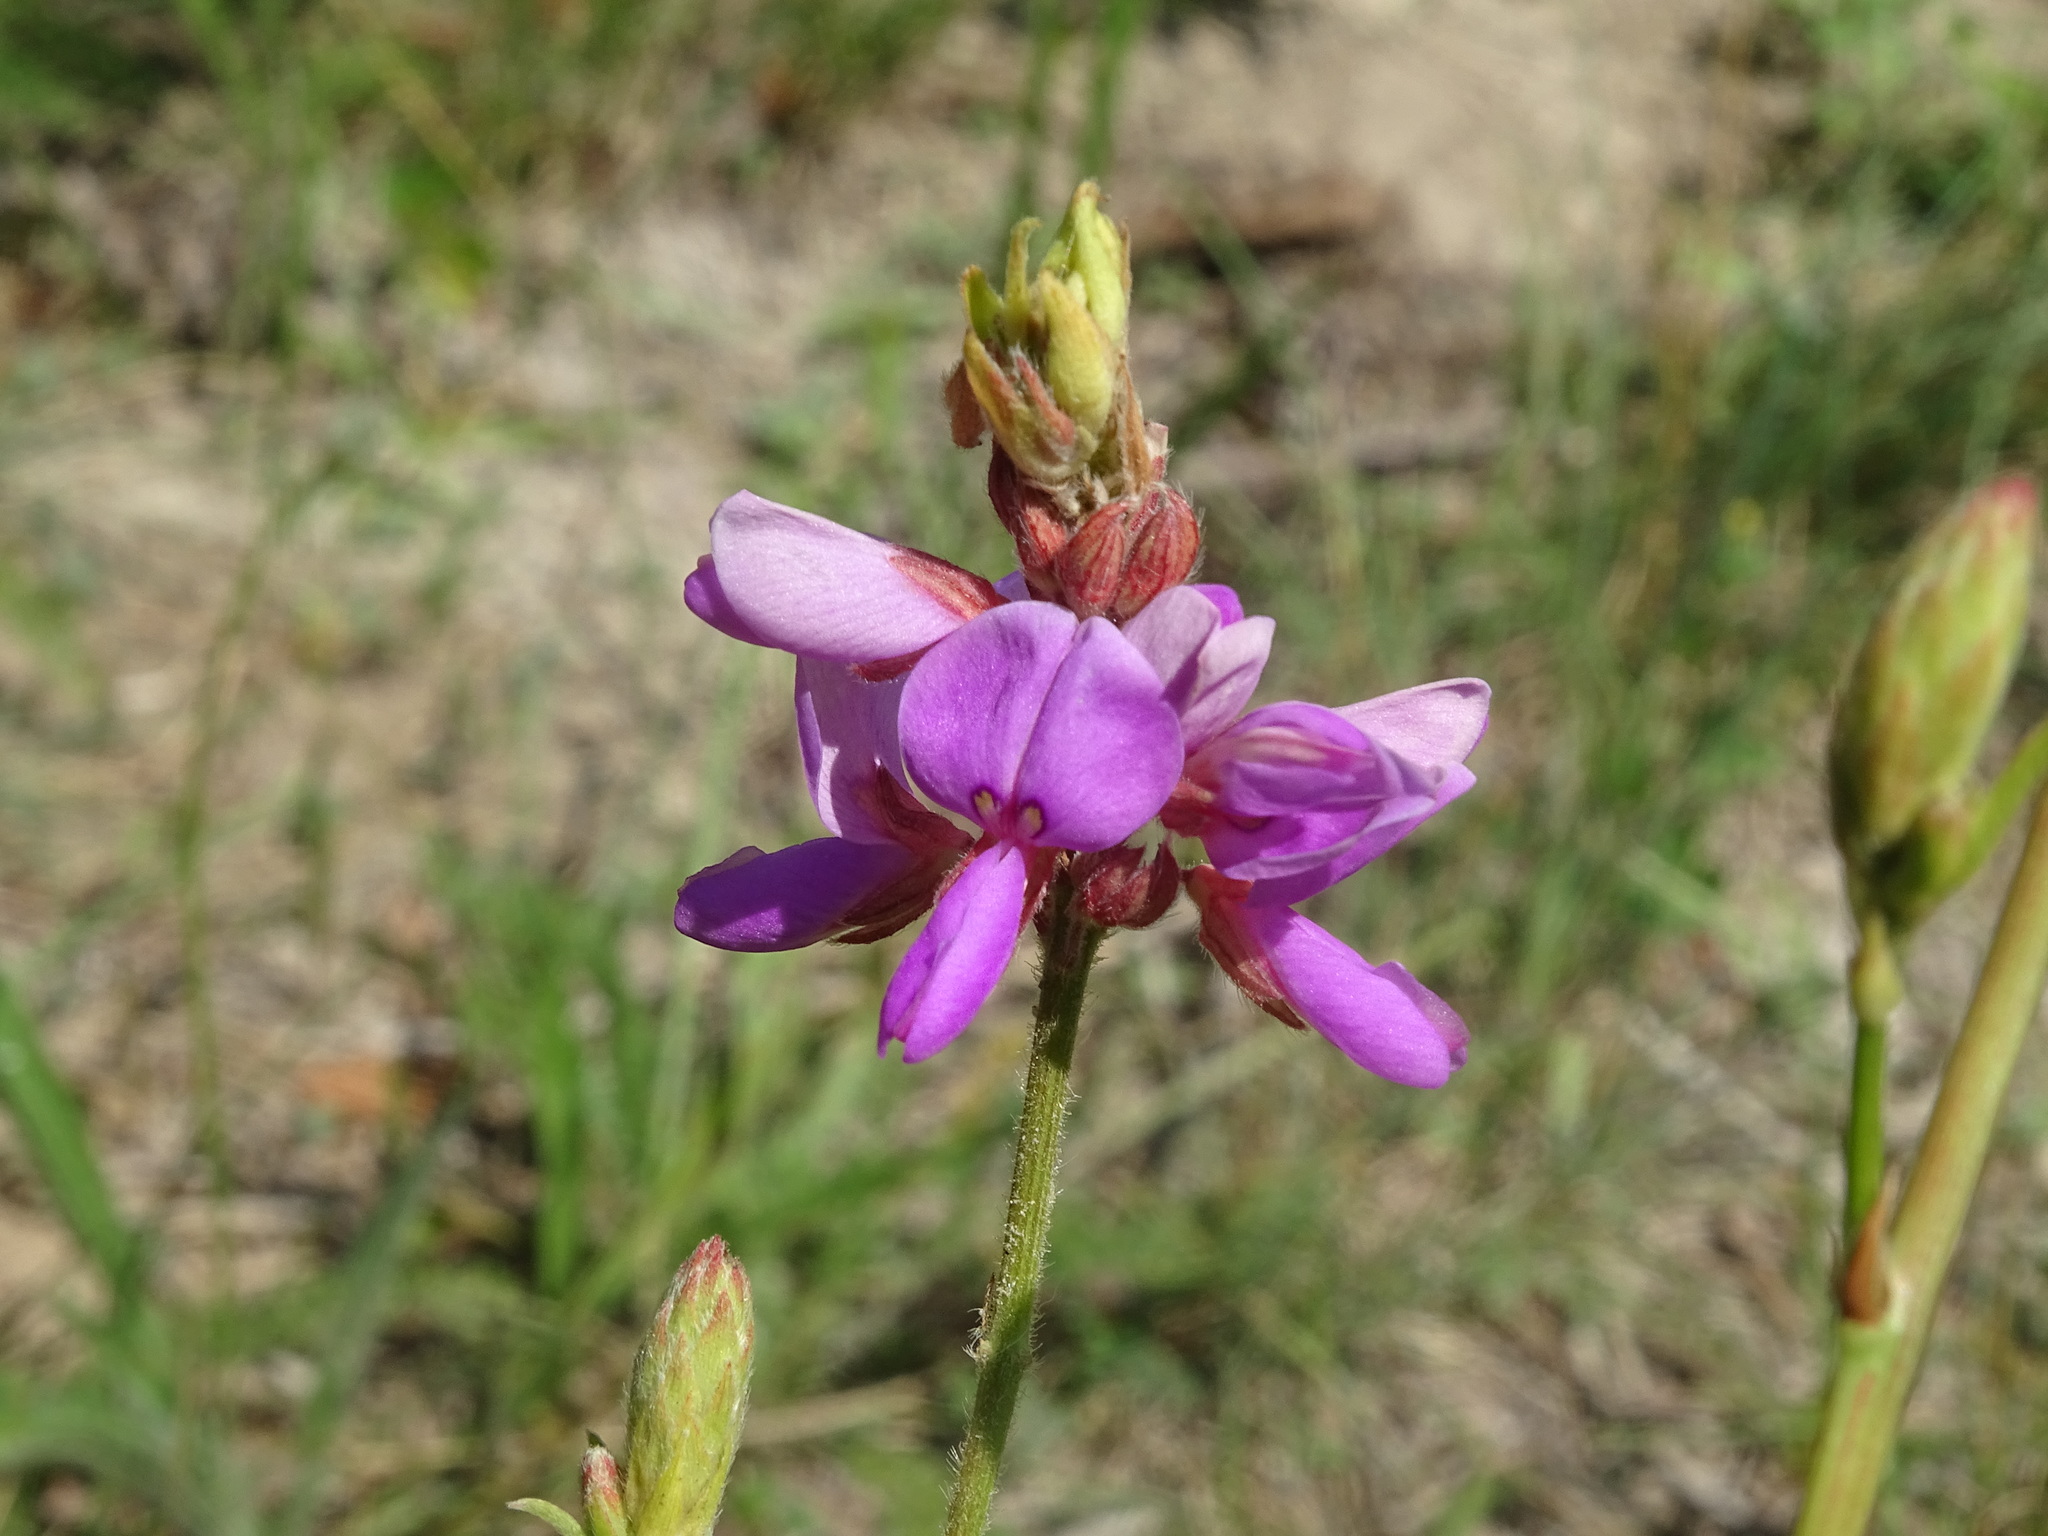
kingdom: Plantae
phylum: Tracheophyta
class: Magnoliopsida
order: Fabales
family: Fabaceae
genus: Desmodium
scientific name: Desmodium canadense
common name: Canada tick-trefoil
